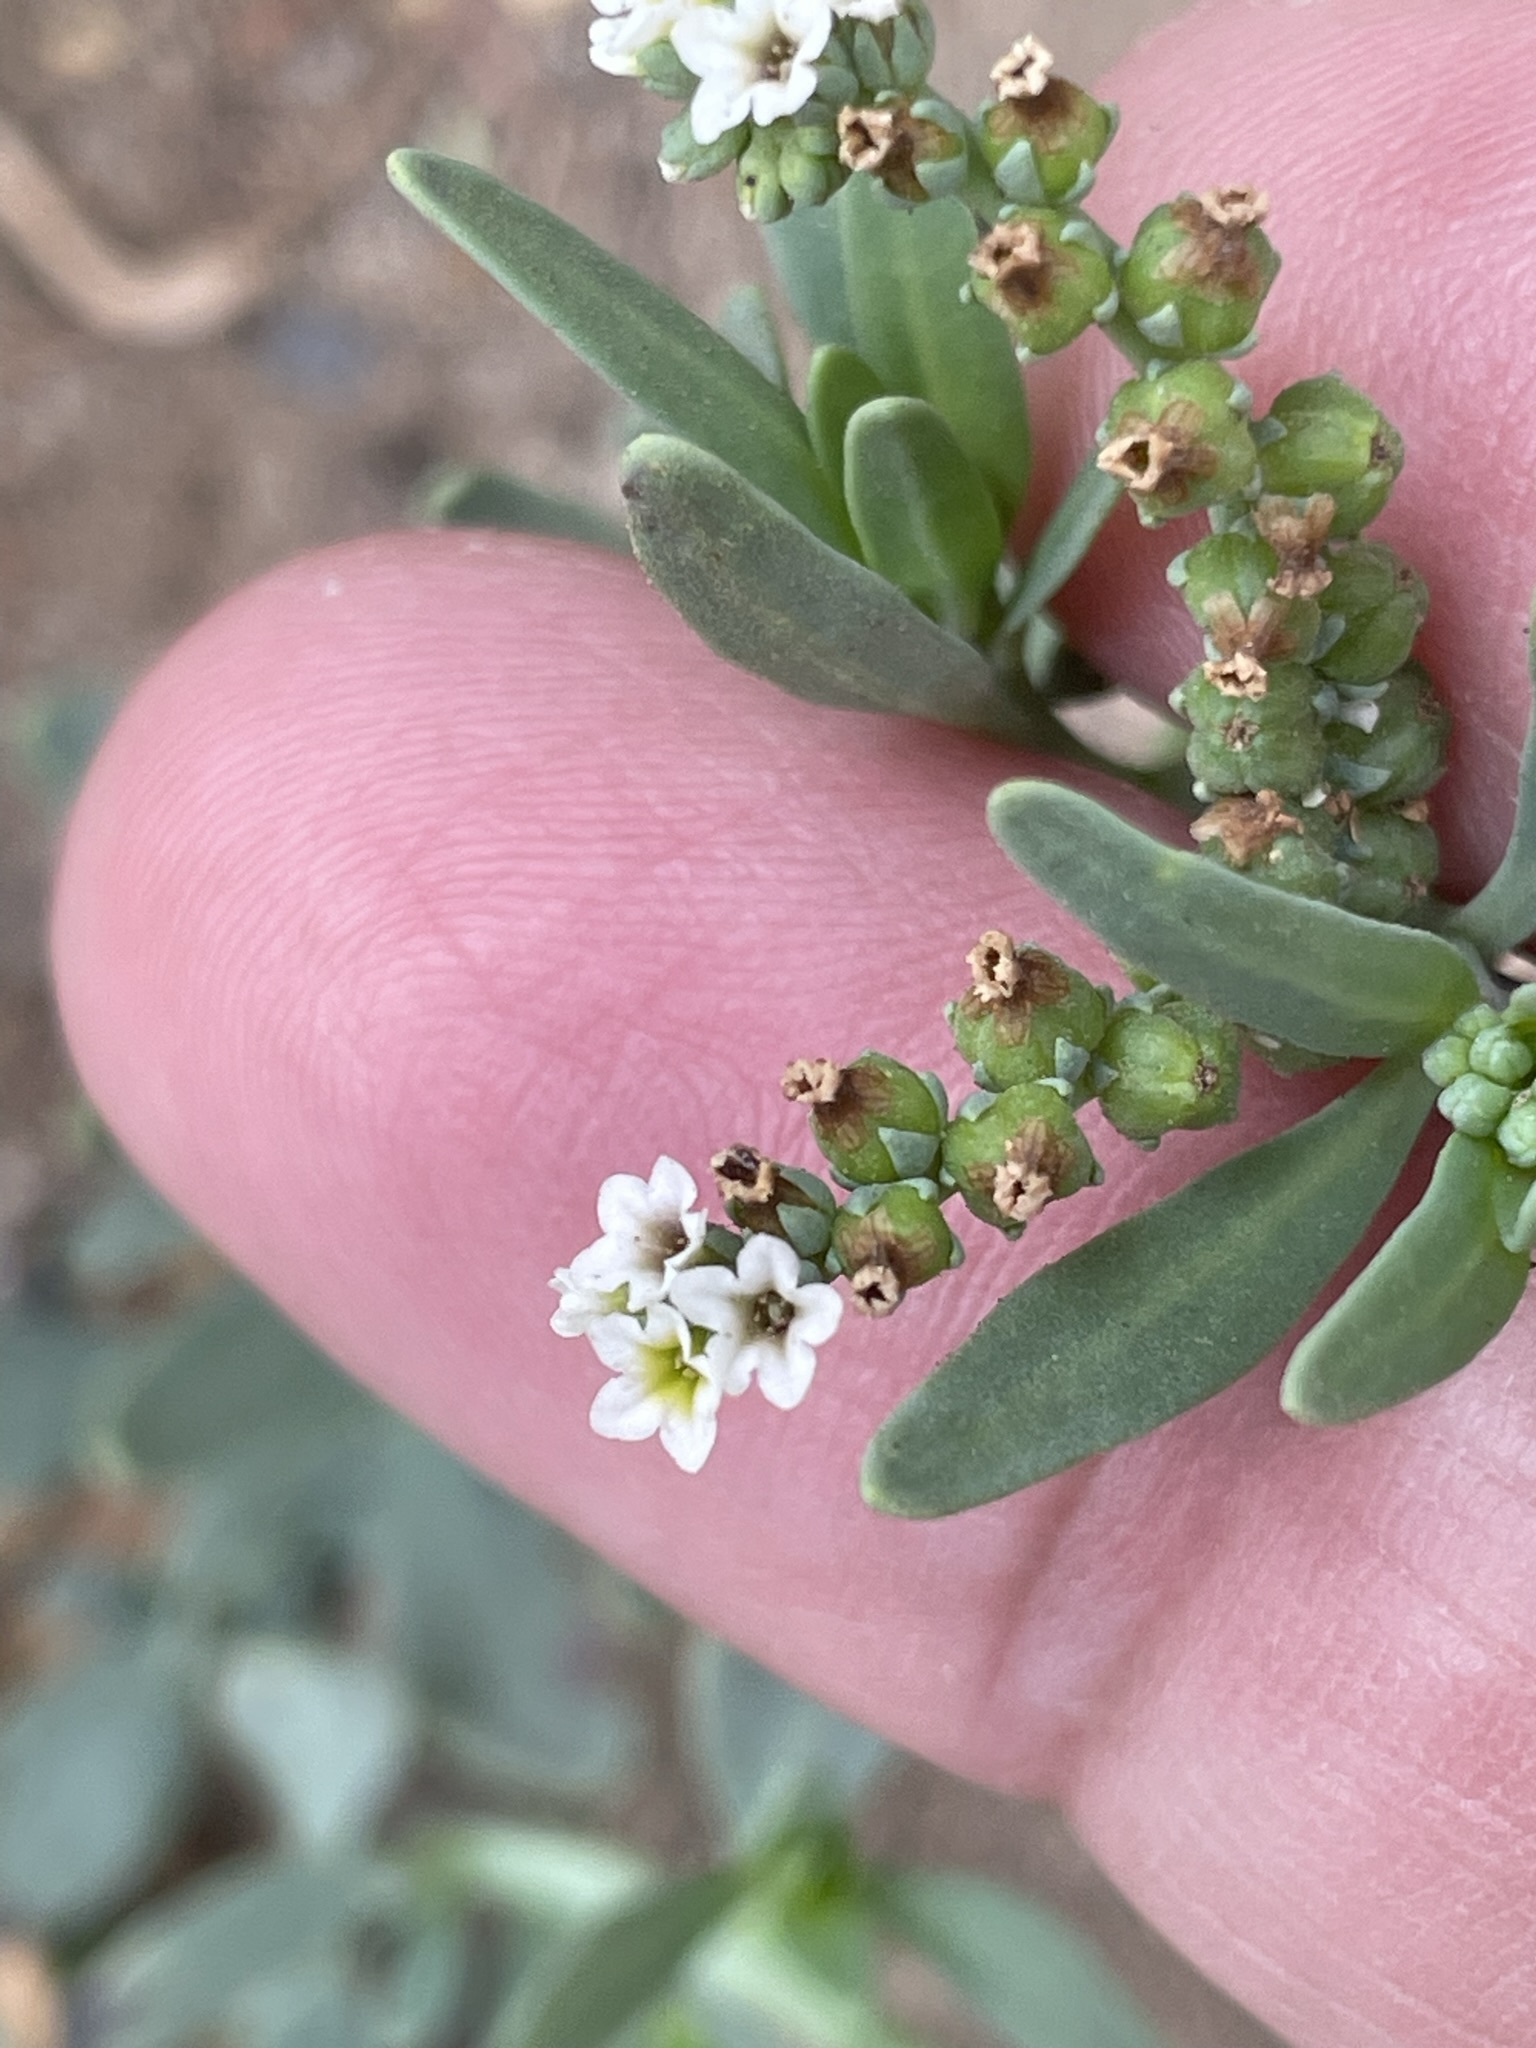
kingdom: Plantae
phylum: Tracheophyta
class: Magnoliopsida
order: Boraginales
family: Heliotropiaceae
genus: Heliotropium
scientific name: Heliotropium curassavicum
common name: Seaside heliotrope
